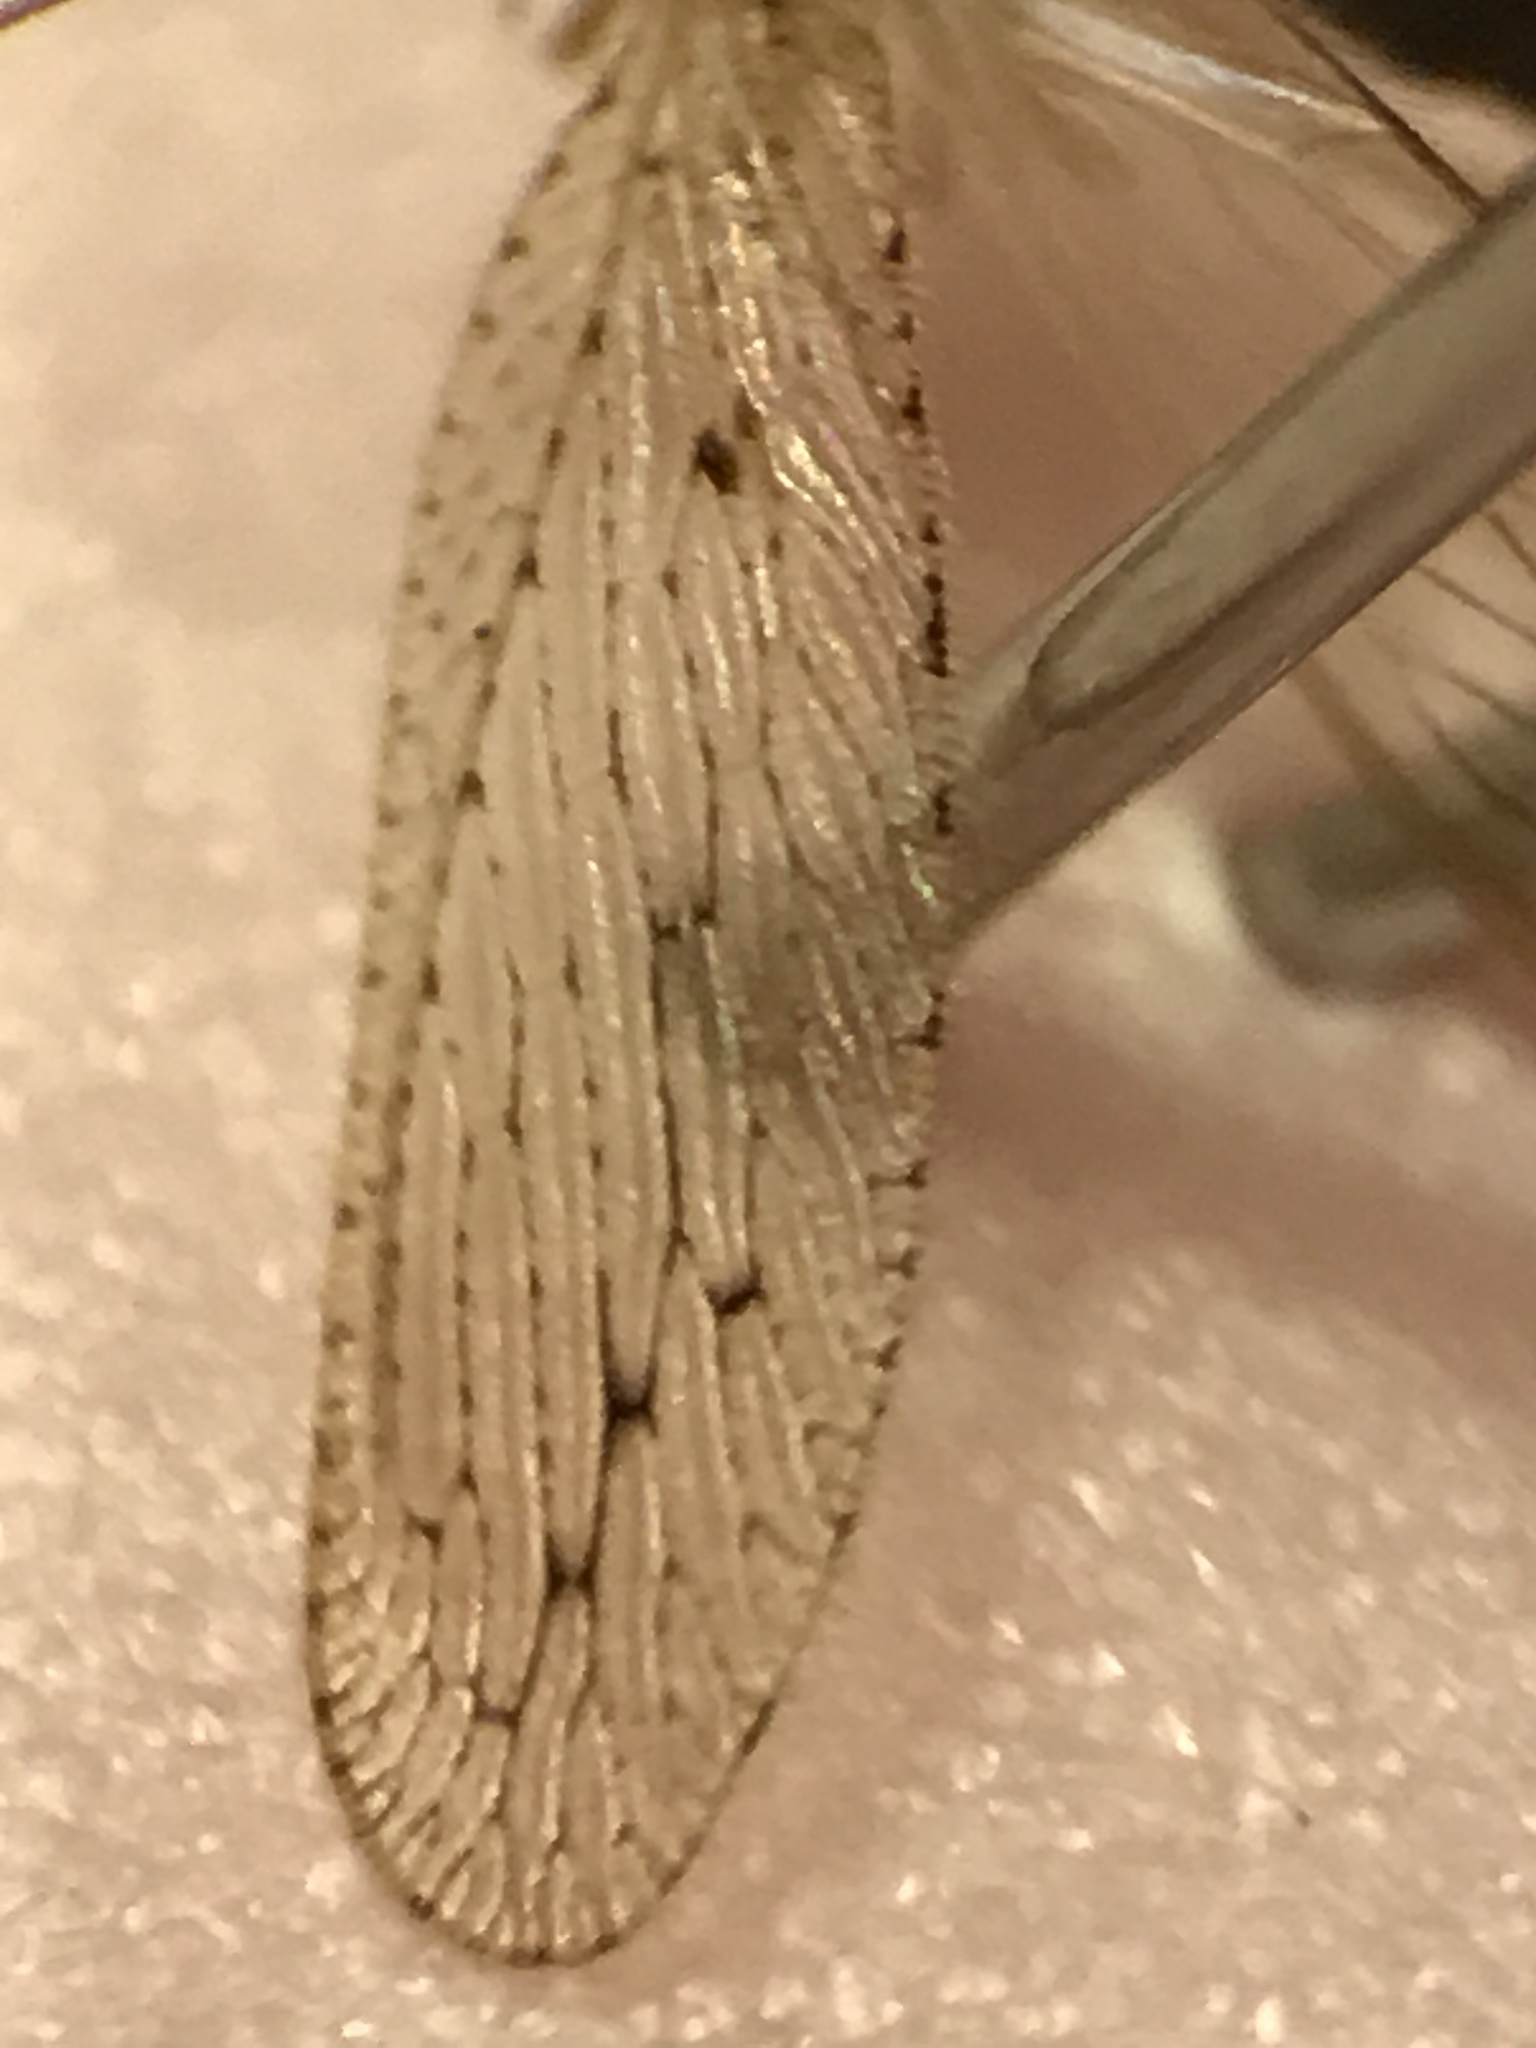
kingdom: Animalia
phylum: Arthropoda
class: Insecta
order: Neuroptera
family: Hemerobiidae
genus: Micromus
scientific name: Micromus subanticus
